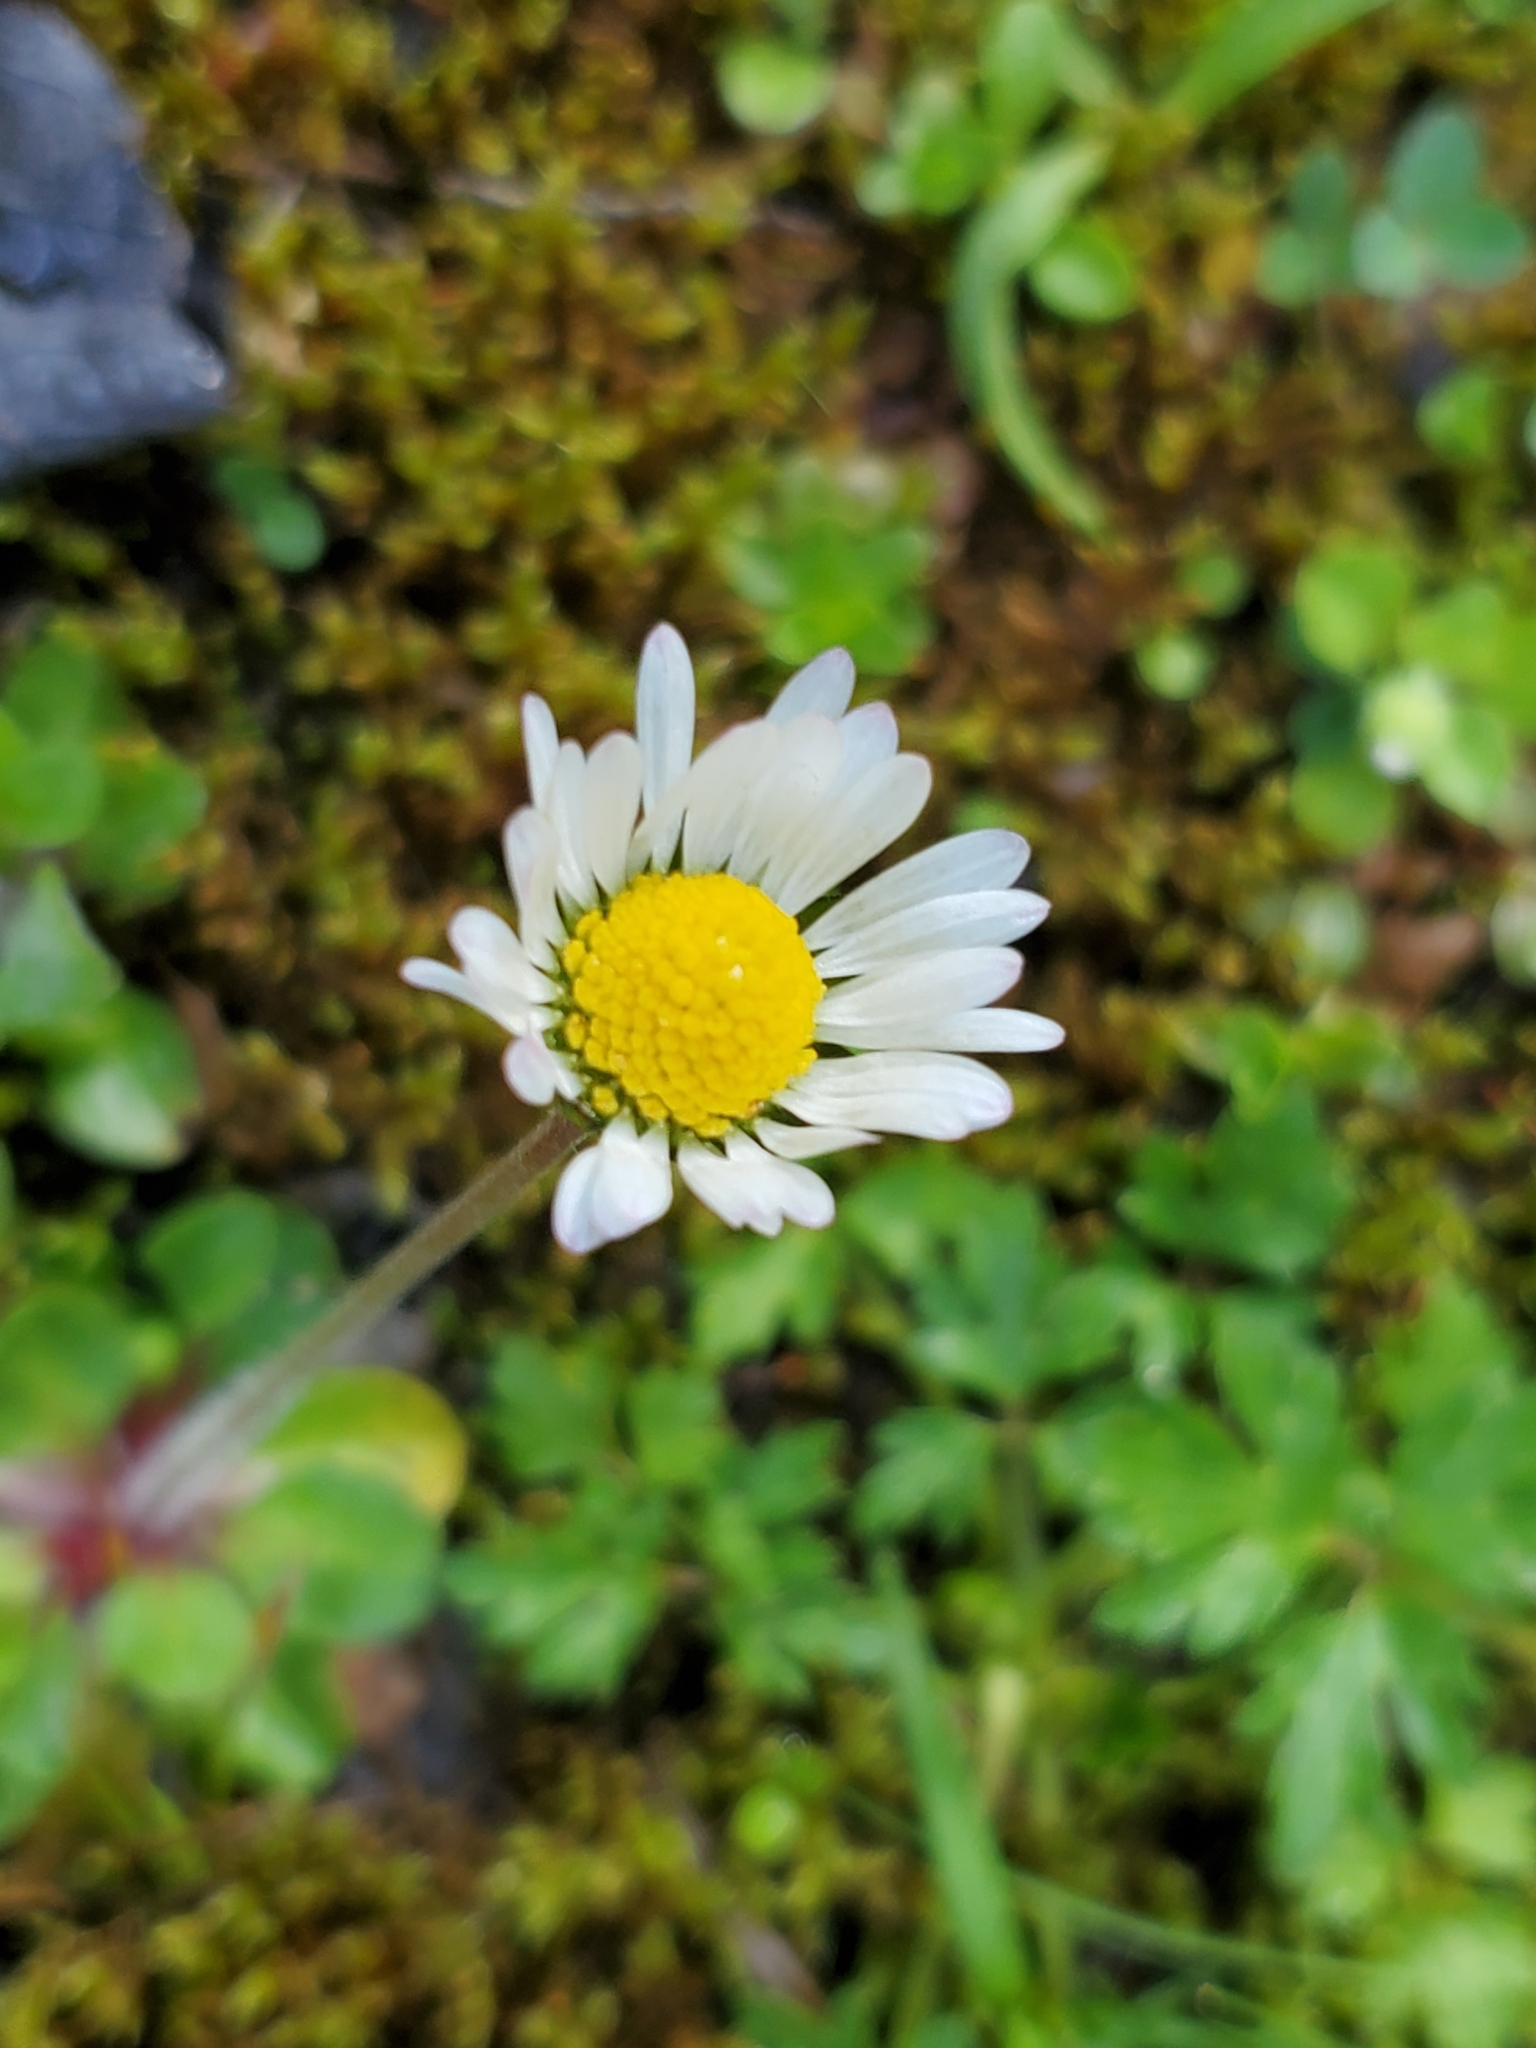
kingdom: Plantae
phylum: Tracheophyta
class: Magnoliopsida
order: Asterales
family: Asteraceae
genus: Bellis
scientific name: Bellis perennis
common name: Lawndaisy
